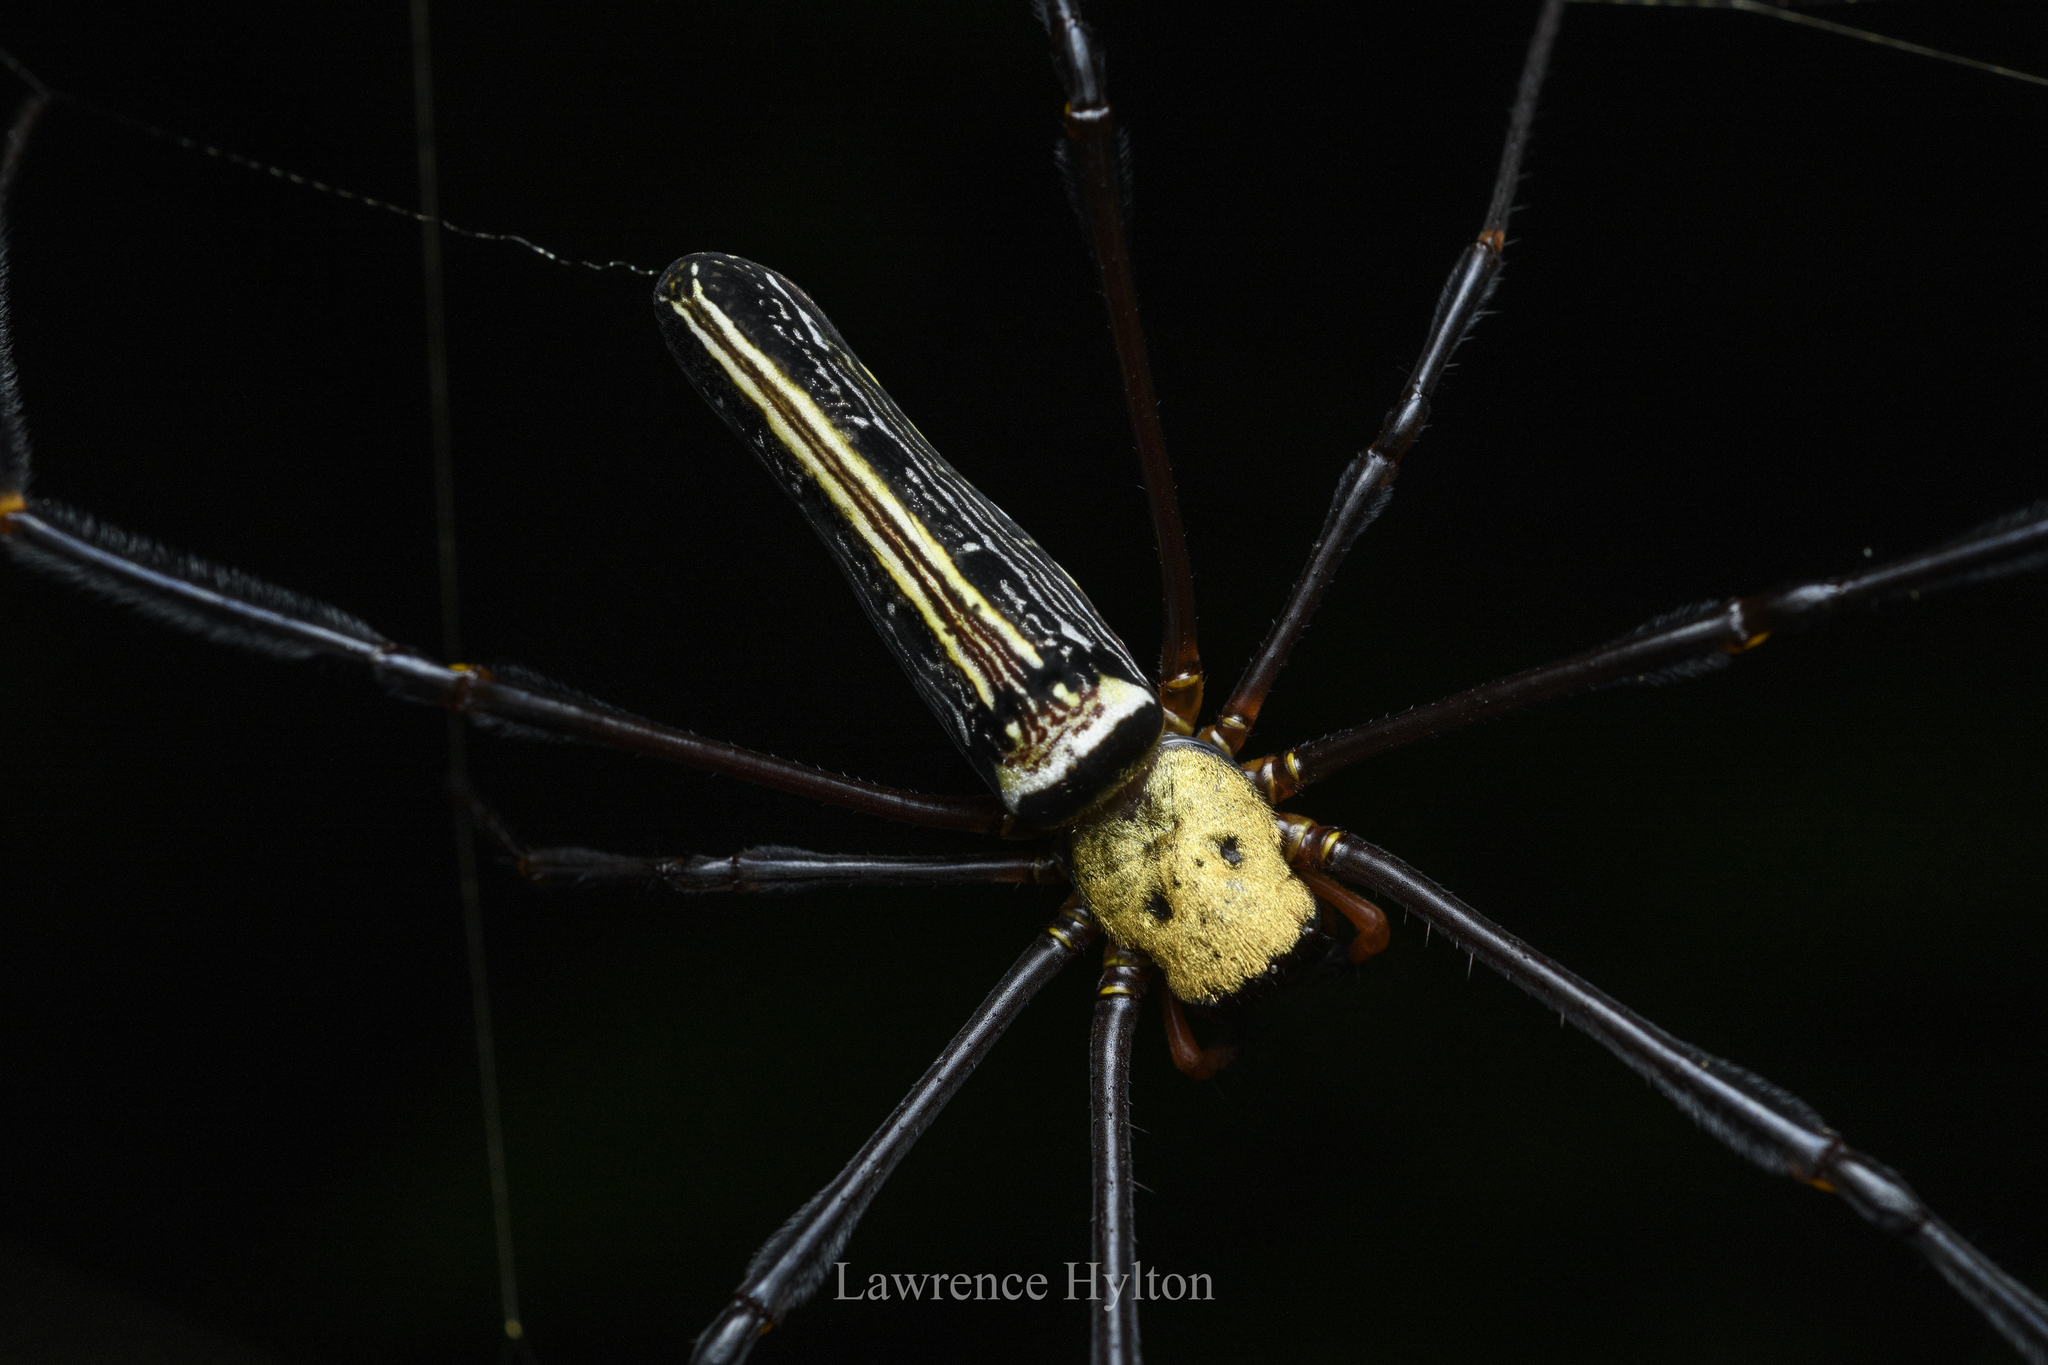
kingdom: Animalia
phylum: Arthropoda
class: Arachnida
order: Araneae
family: Araneidae
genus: Nephila
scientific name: Nephila pilipes
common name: Giant golden orb weaver
